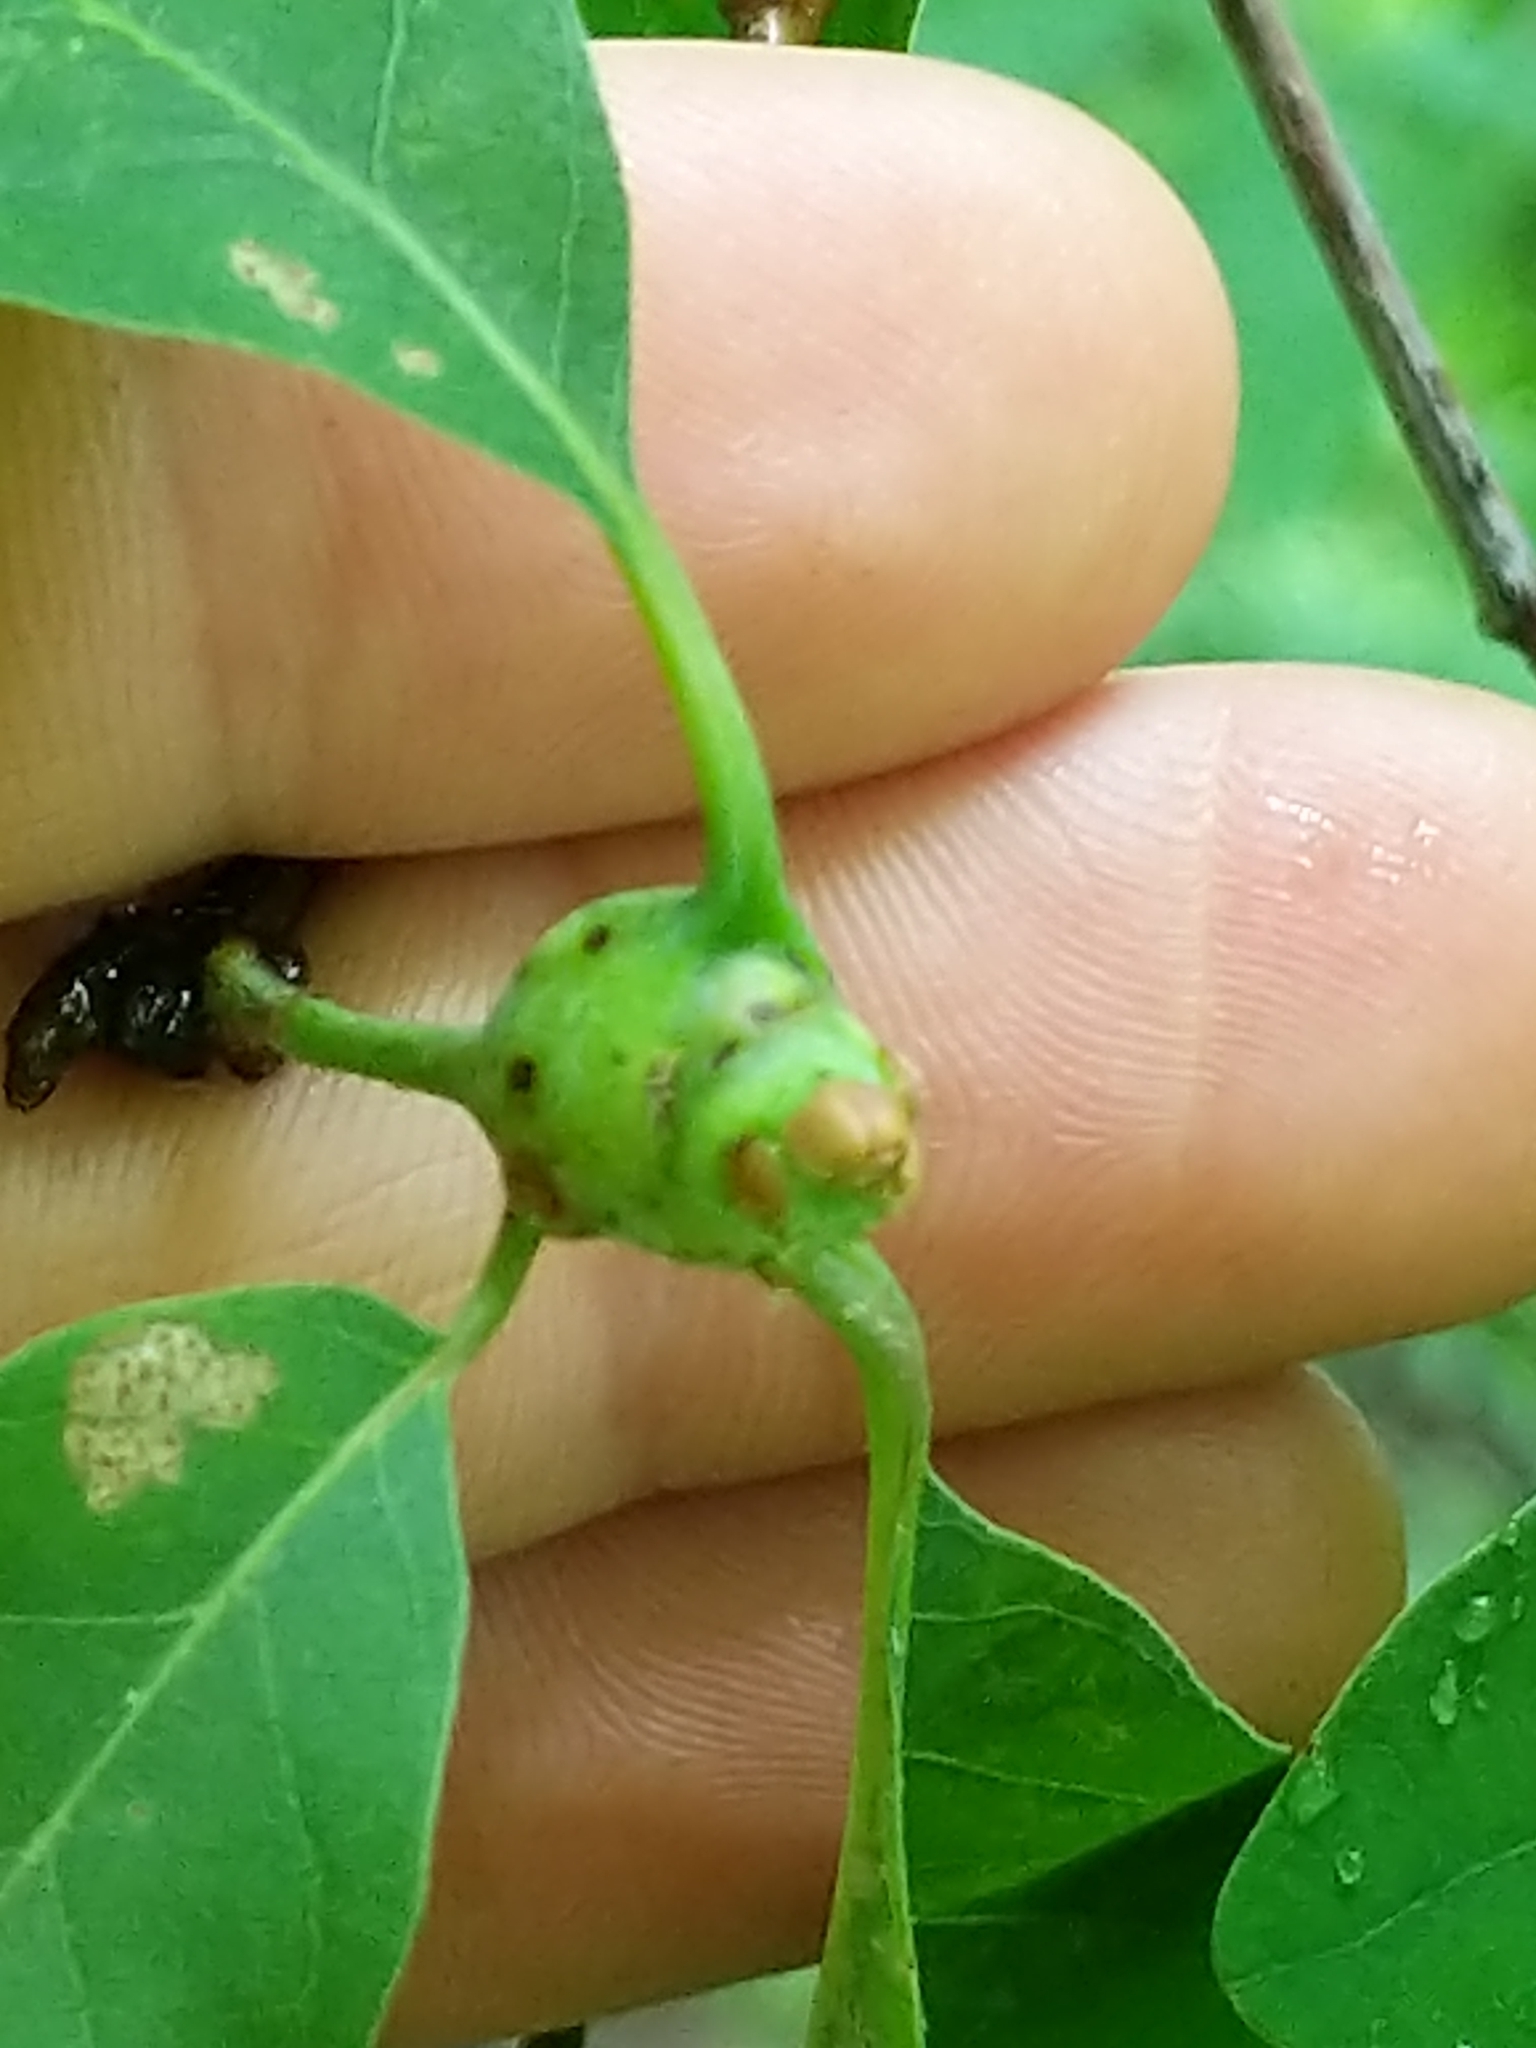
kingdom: Animalia
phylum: Arthropoda
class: Insecta
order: Hymenoptera
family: Cynipidae
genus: Callirhytis
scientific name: Callirhytis clavula
